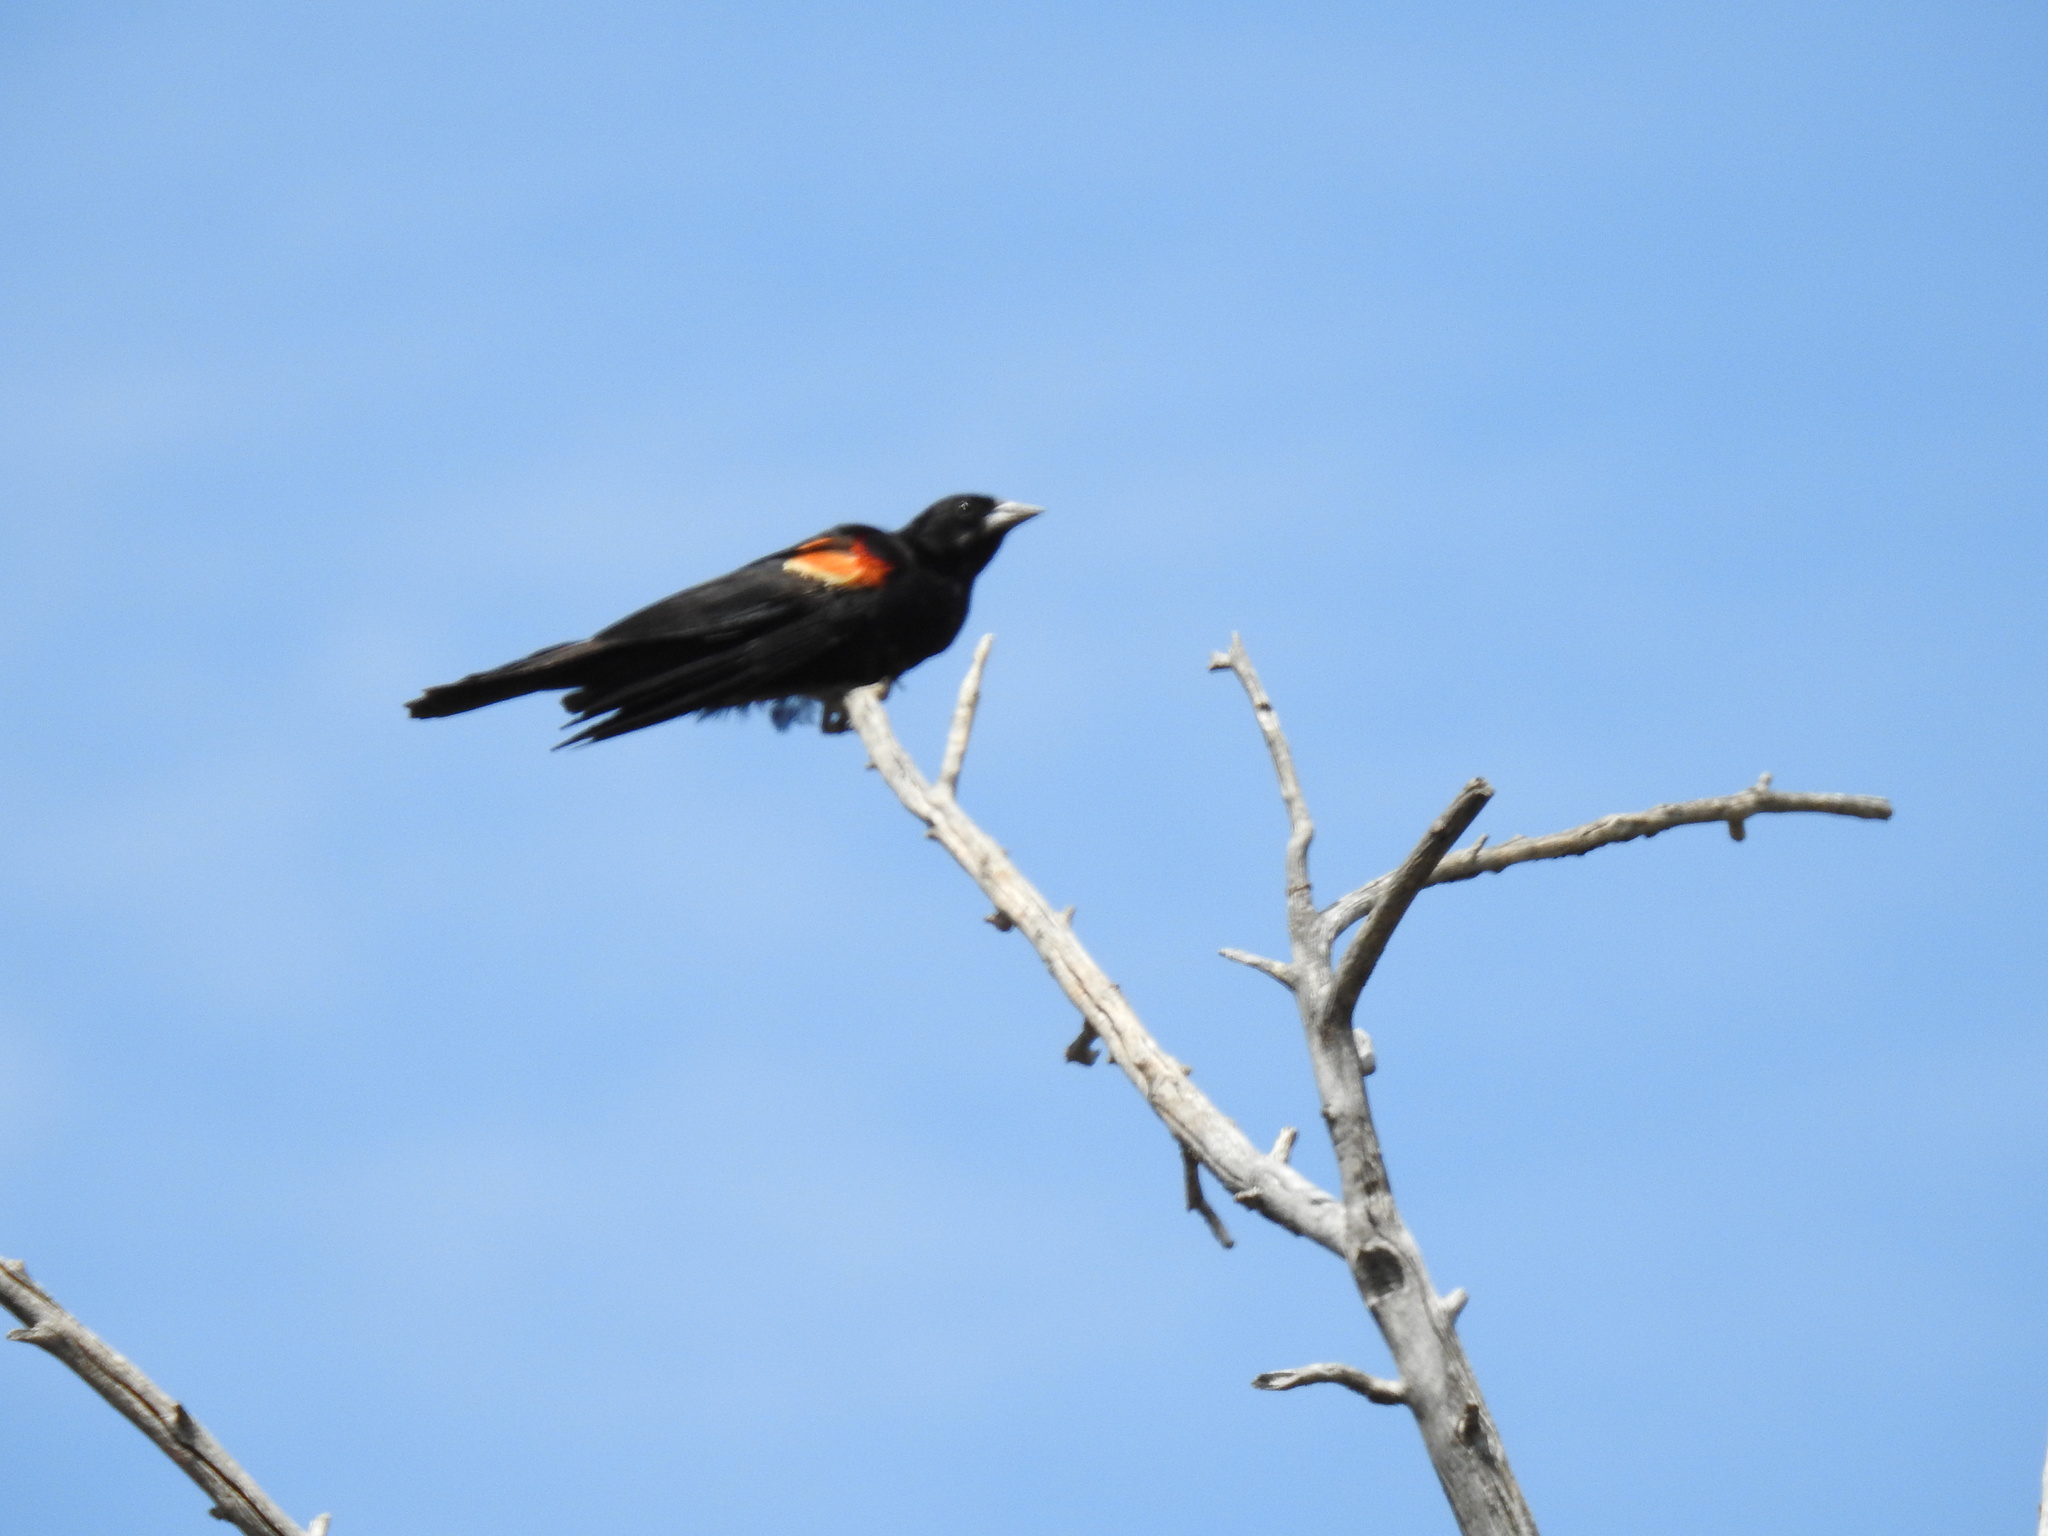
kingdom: Animalia
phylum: Chordata
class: Aves
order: Passeriformes
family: Icteridae
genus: Agelaius
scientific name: Agelaius phoeniceus
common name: Red-winged blackbird
